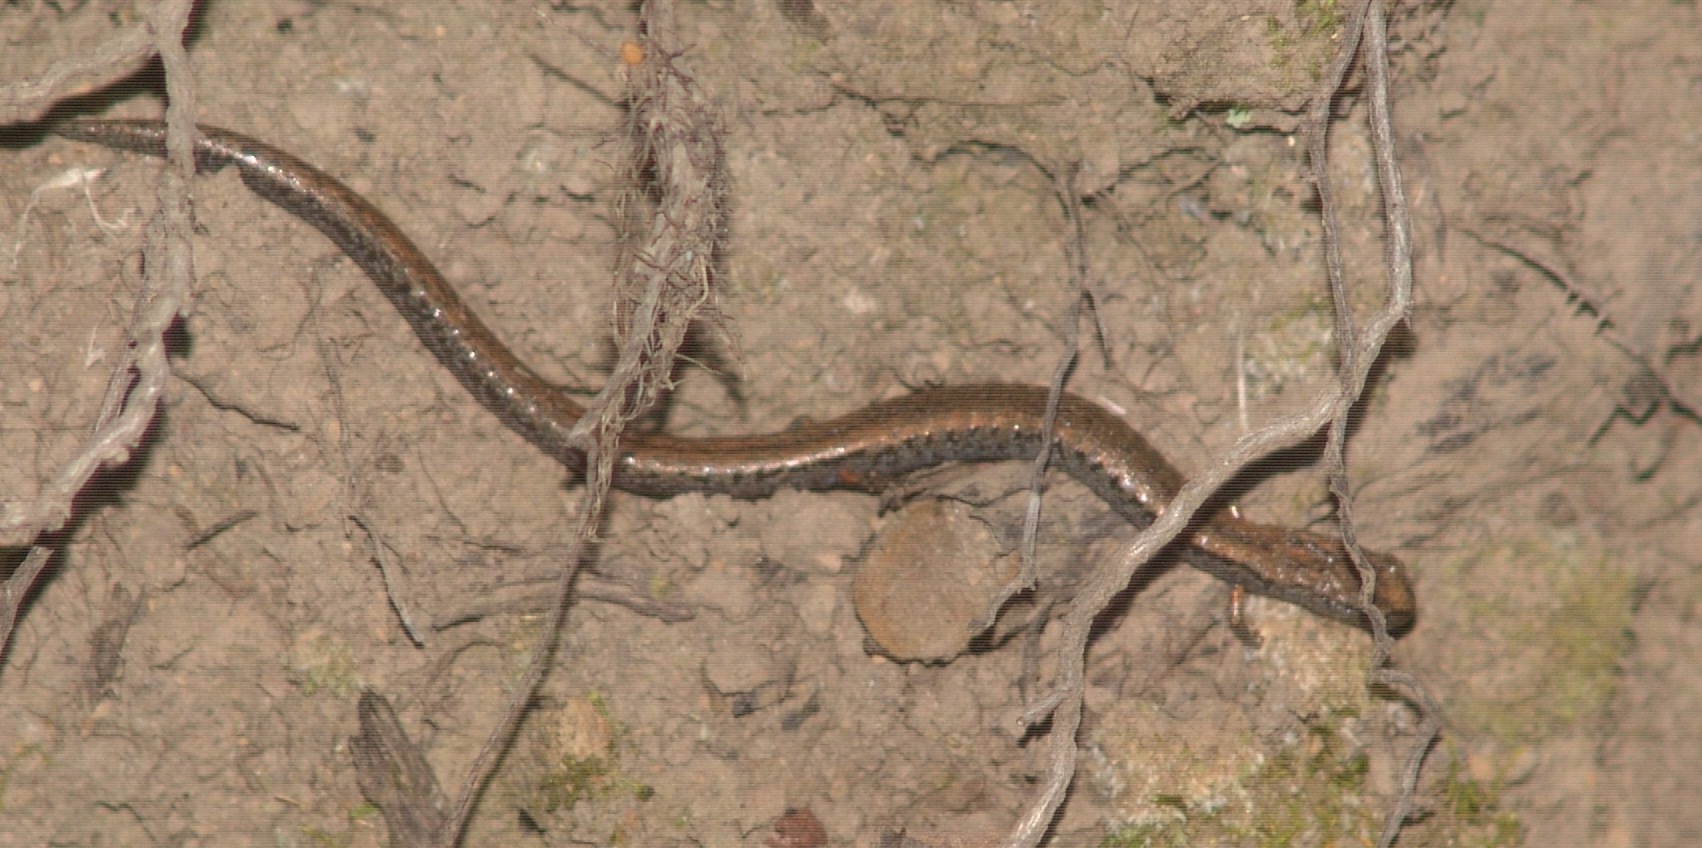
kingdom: Animalia
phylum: Chordata
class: Amphibia
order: Caudata
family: Plethodontidae
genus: Batrachoseps
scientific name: Batrachoseps attenuatus
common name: California slender salamander
